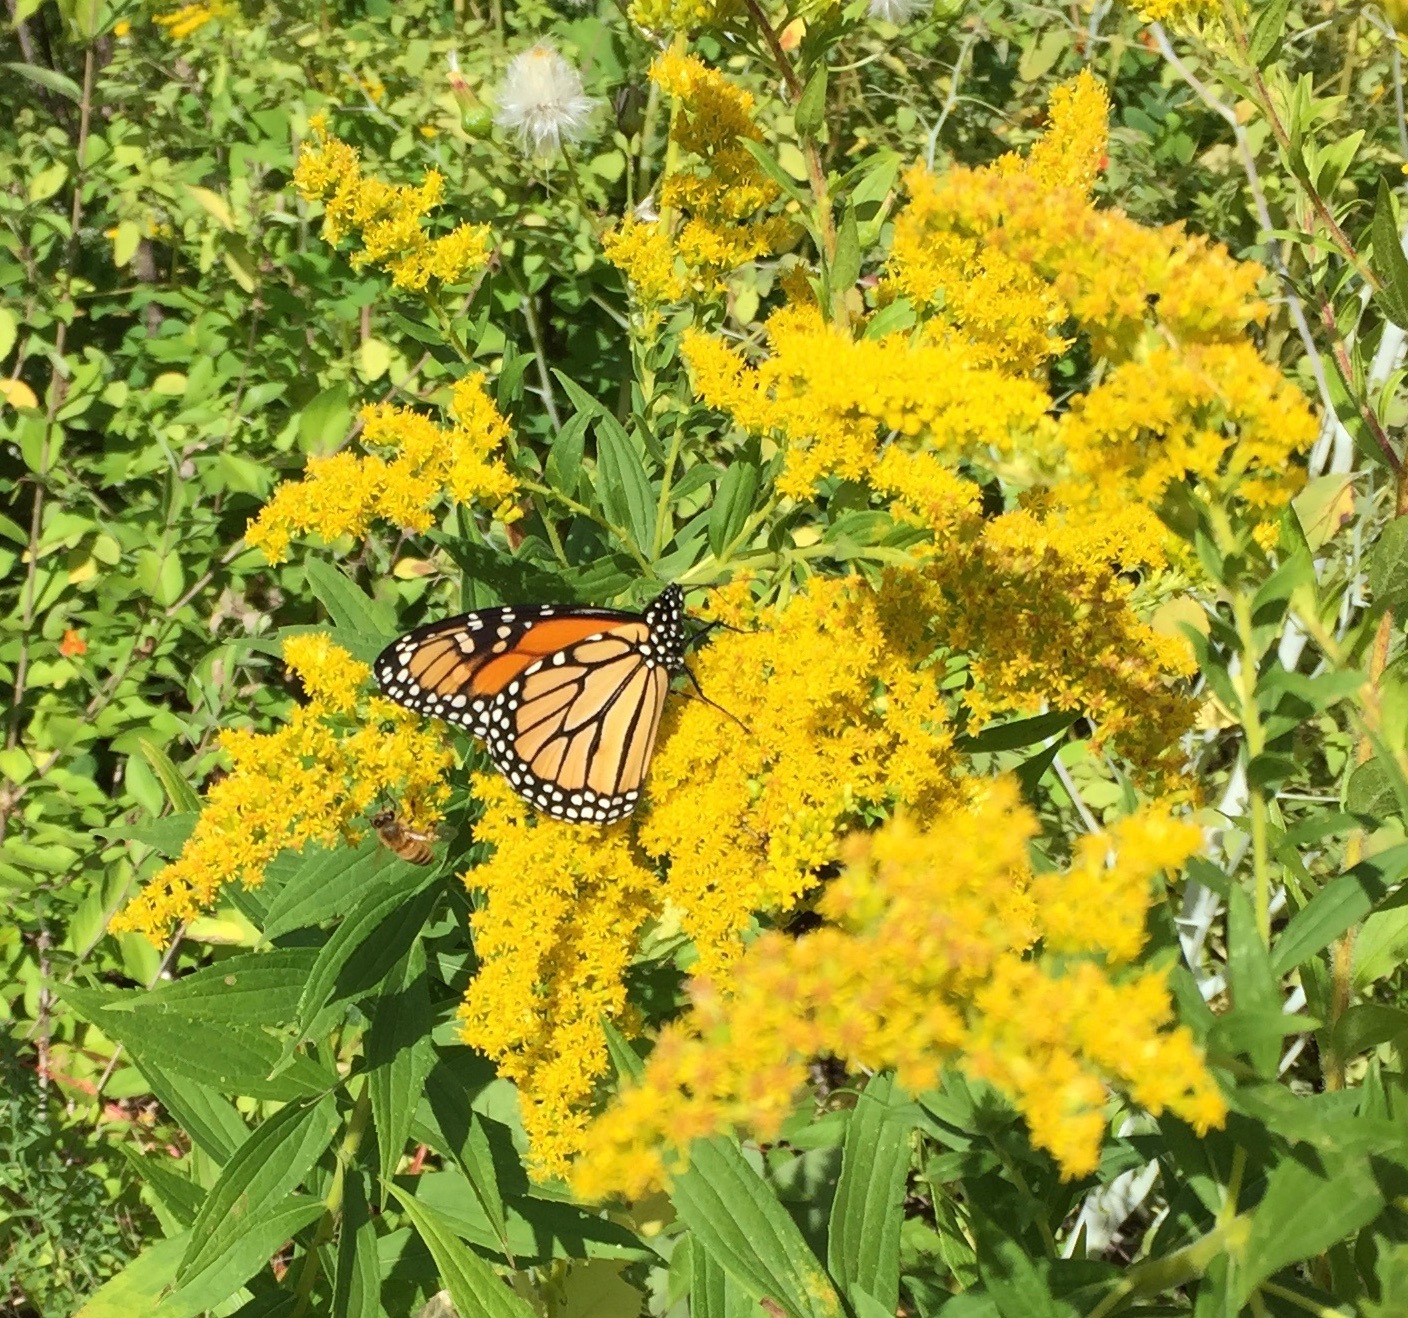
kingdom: Animalia
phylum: Arthropoda
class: Insecta
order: Lepidoptera
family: Nymphalidae
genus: Danaus
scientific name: Danaus plexippus
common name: Monarch
